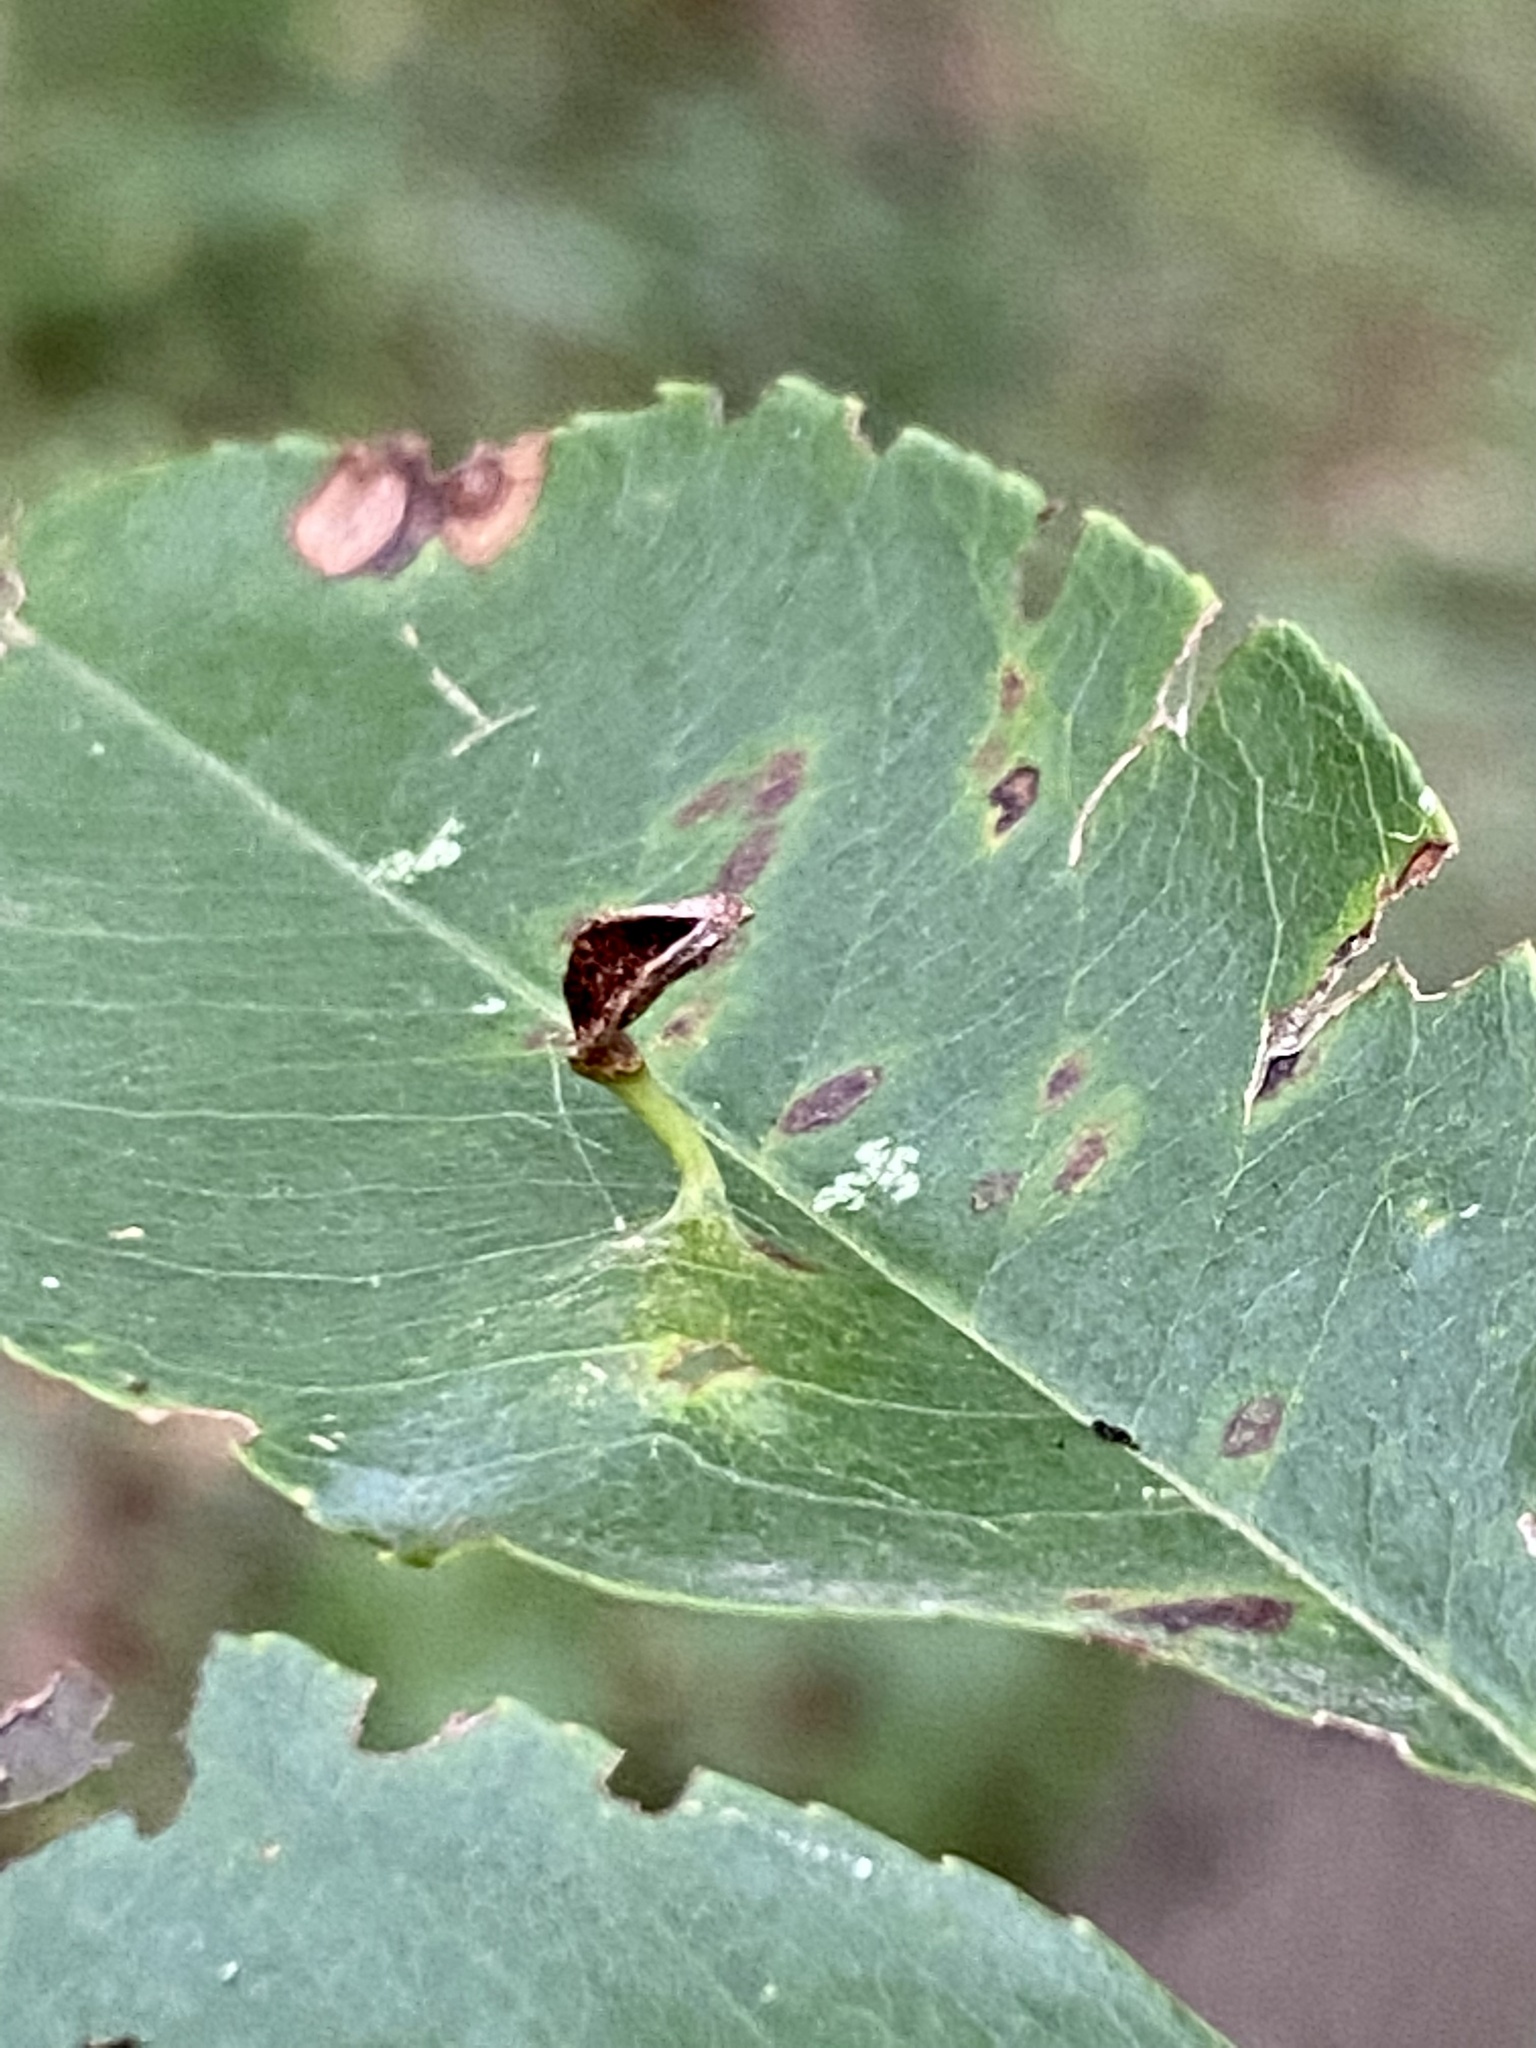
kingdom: Animalia
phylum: Arthropoda
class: Arachnida
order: Trombidiformes
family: Eriophyidae
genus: Eriophyes
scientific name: Eriophyes
